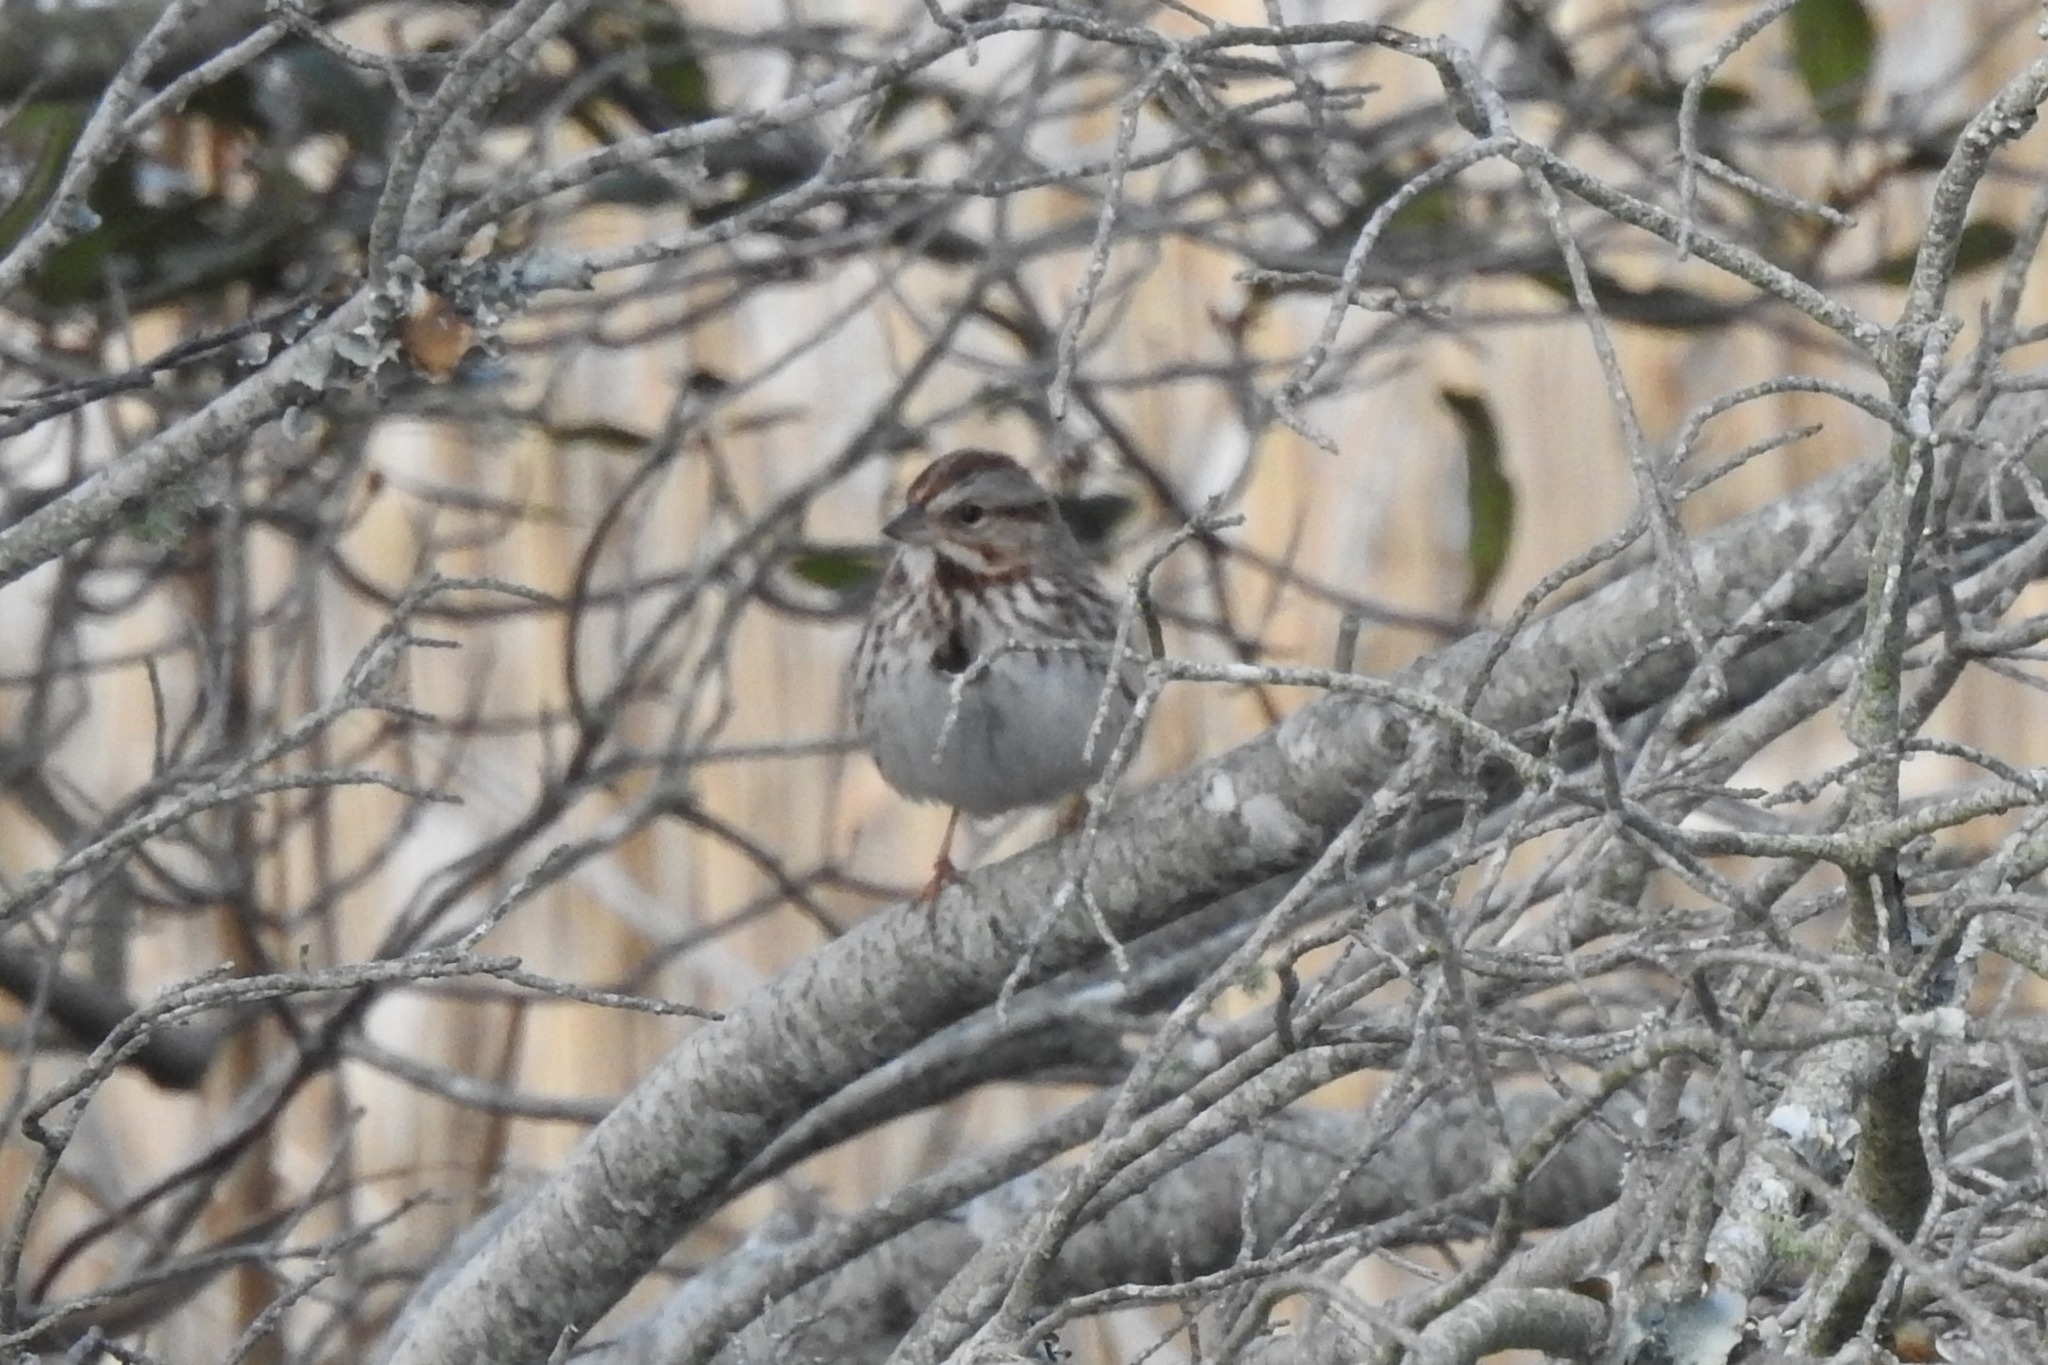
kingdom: Animalia
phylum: Chordata
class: Aves
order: Passeriformes
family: Passerellidae
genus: Melospiza
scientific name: Melospiza melodia
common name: Song sparrow
